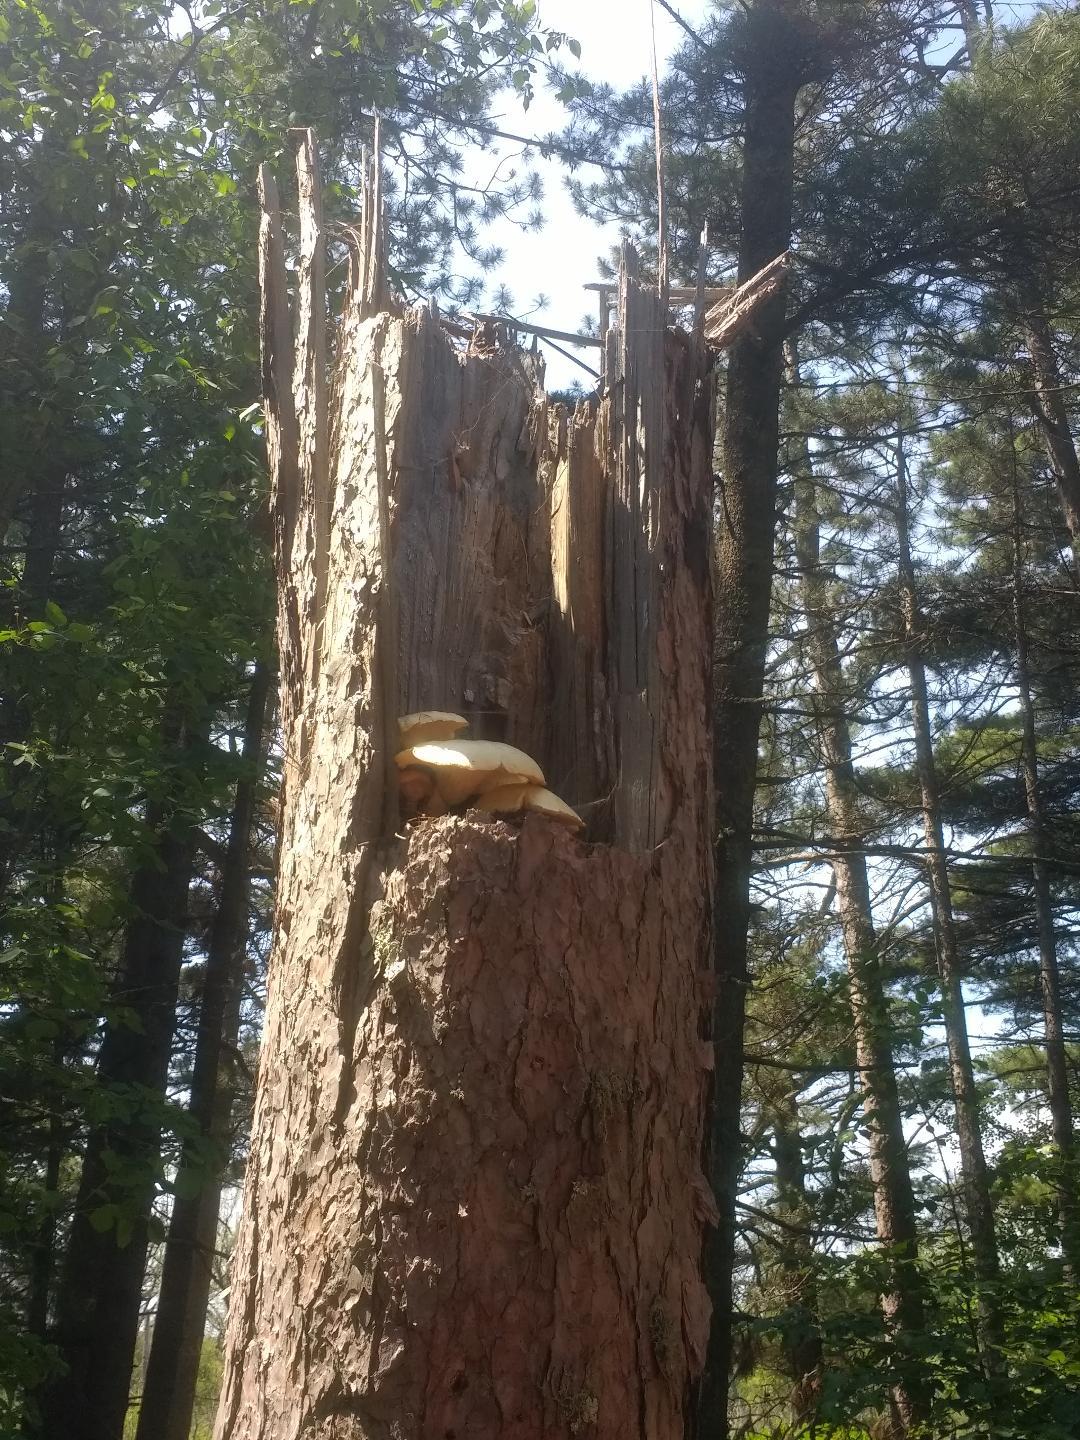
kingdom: Fungi
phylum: Basidiomycota
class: Agaricomycetes
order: Gloeophyllales
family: Gloeophyllaceae
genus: Neolentinus
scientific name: Neolentinus lepideus
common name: Scaly sawgill
